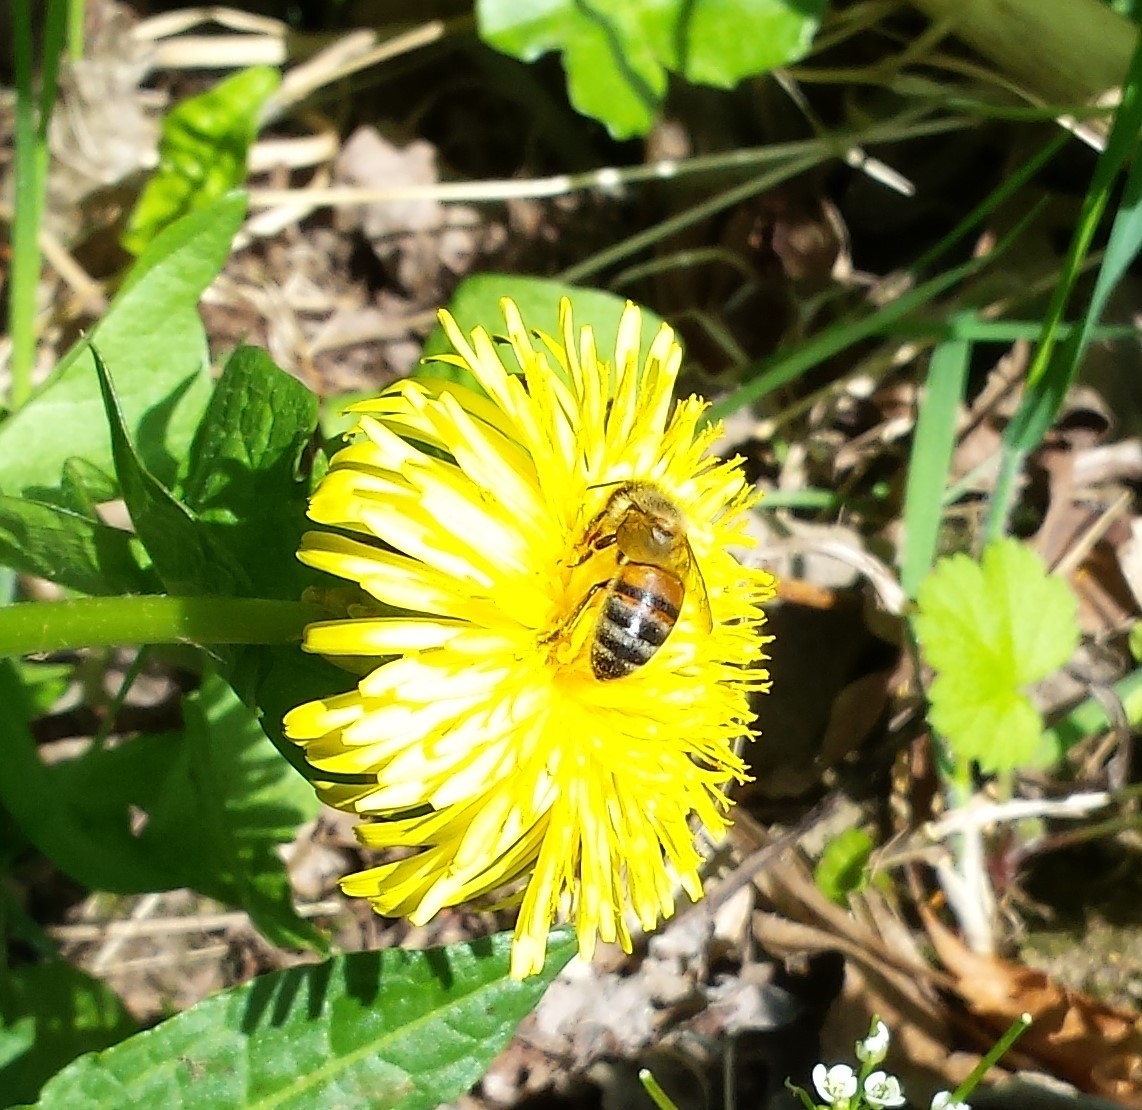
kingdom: Animalia
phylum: Arthropoda
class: Insecta
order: Hymenoptera
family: Apidae
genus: Apis
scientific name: Apis mellifera
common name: Honey bee
